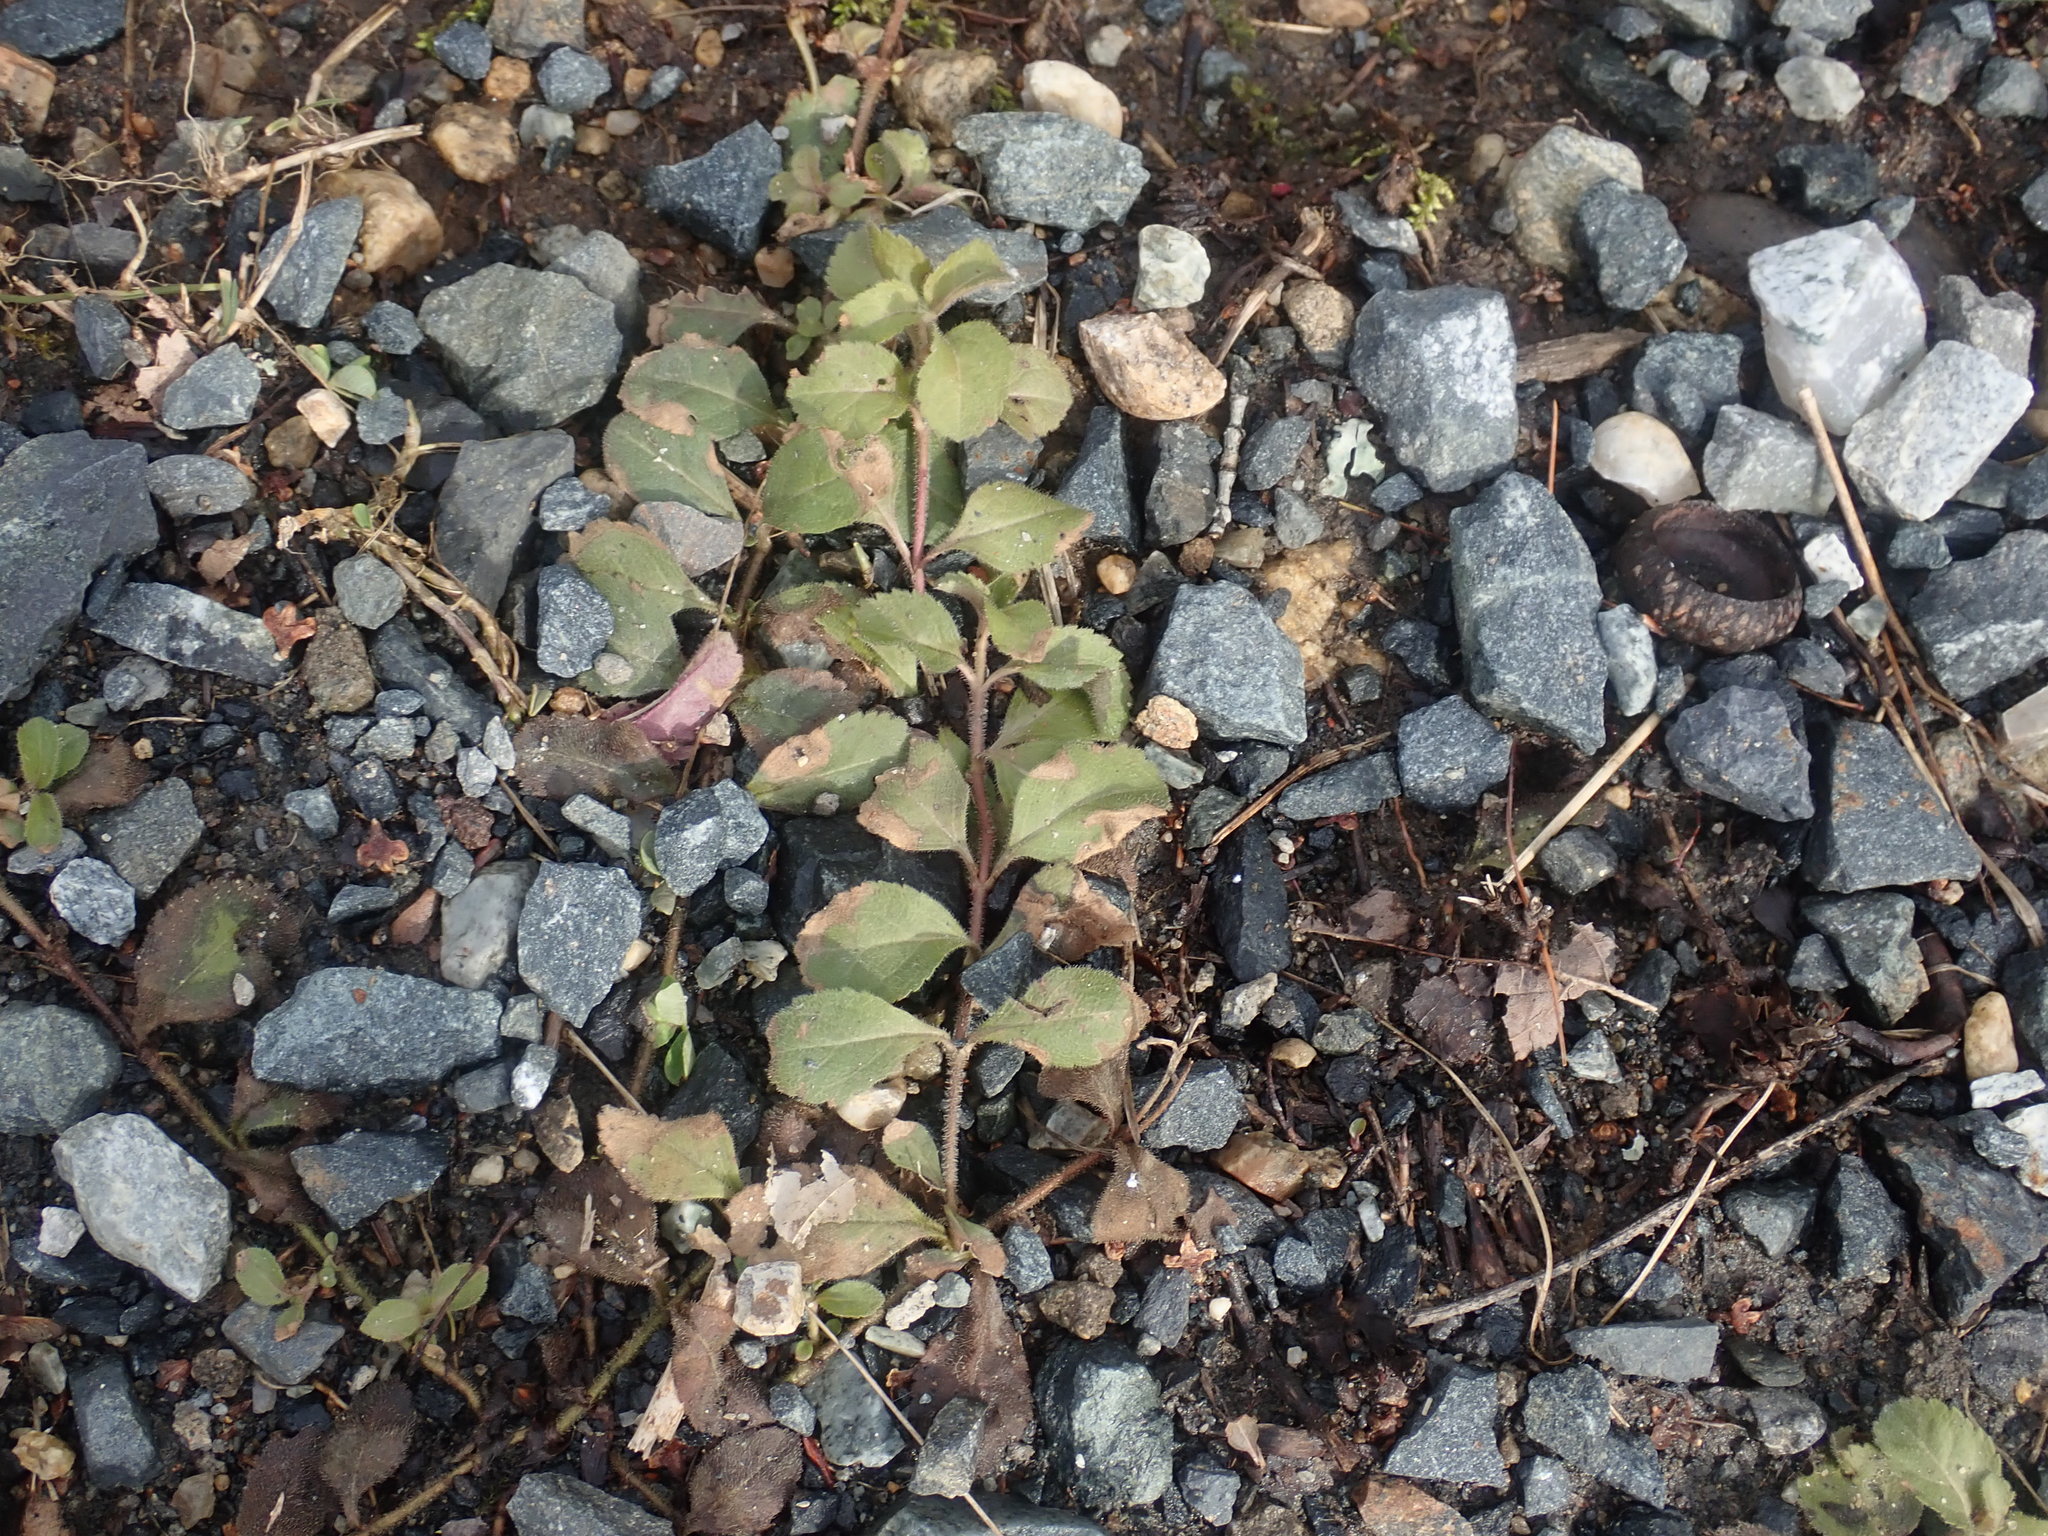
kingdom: Plantae
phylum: Tracheophyta
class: Magnoliopsida
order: Lamiales
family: Plantaginaceae
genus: Veronica
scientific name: Veronica officinalis
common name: Common speedwell
